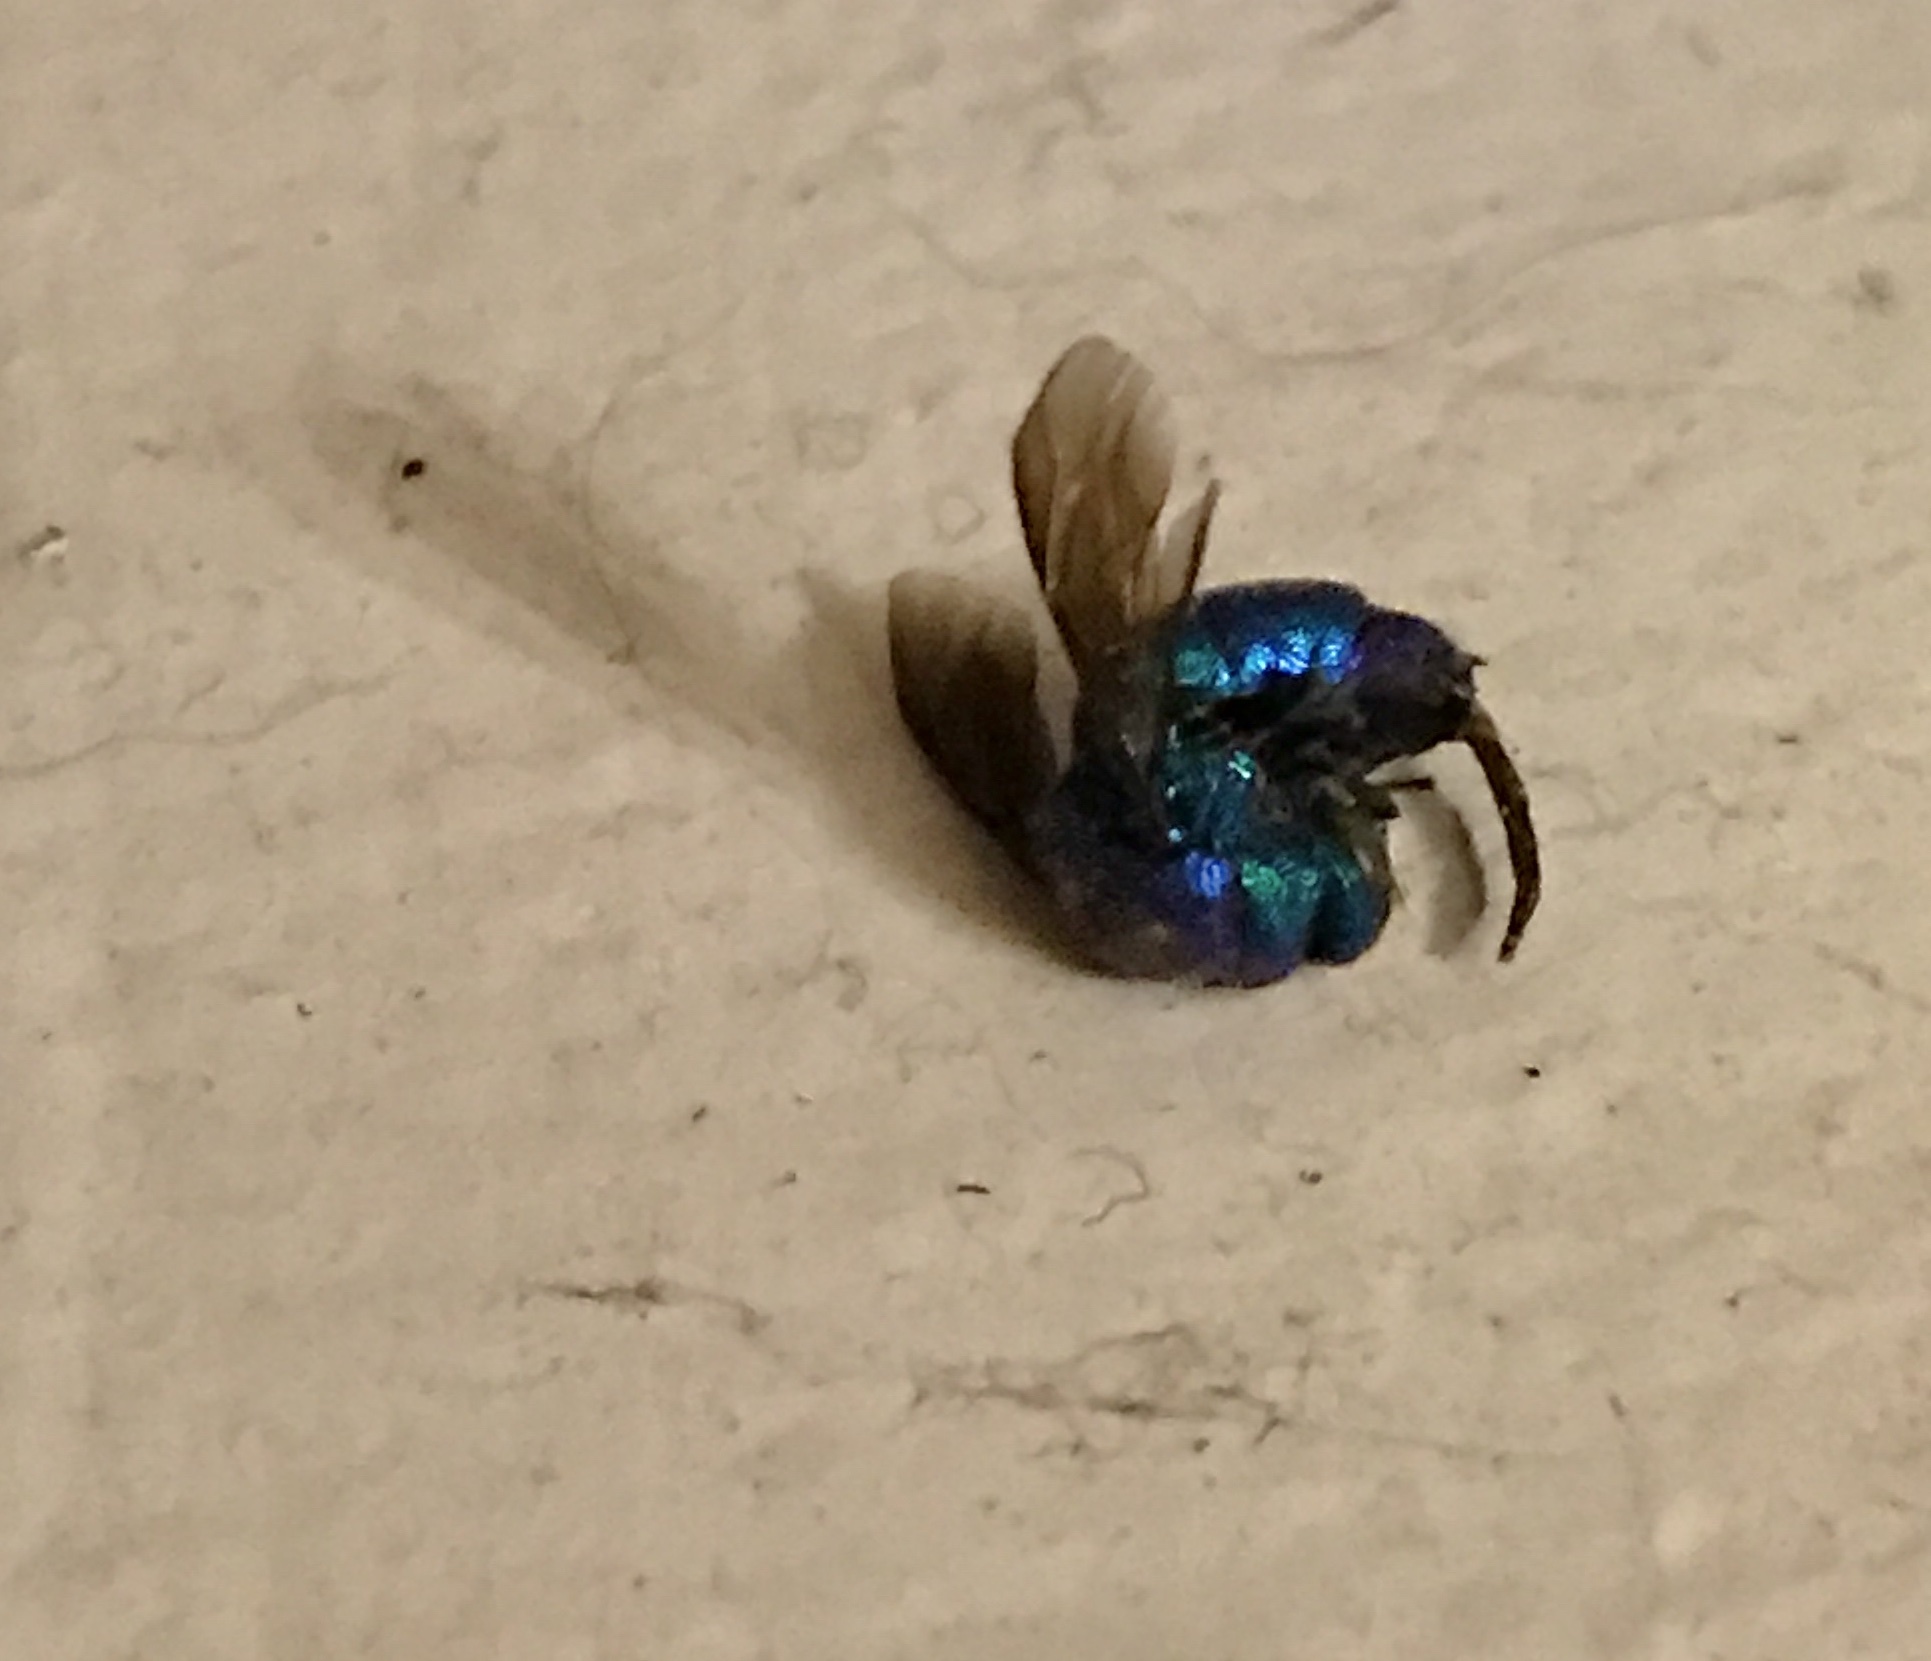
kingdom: Animalia
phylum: Arthropoda
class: Insecta
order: Hymenoptera
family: Chrysididae
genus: Chrysis
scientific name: Chrysis angolensis
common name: Cuckoo wasp
